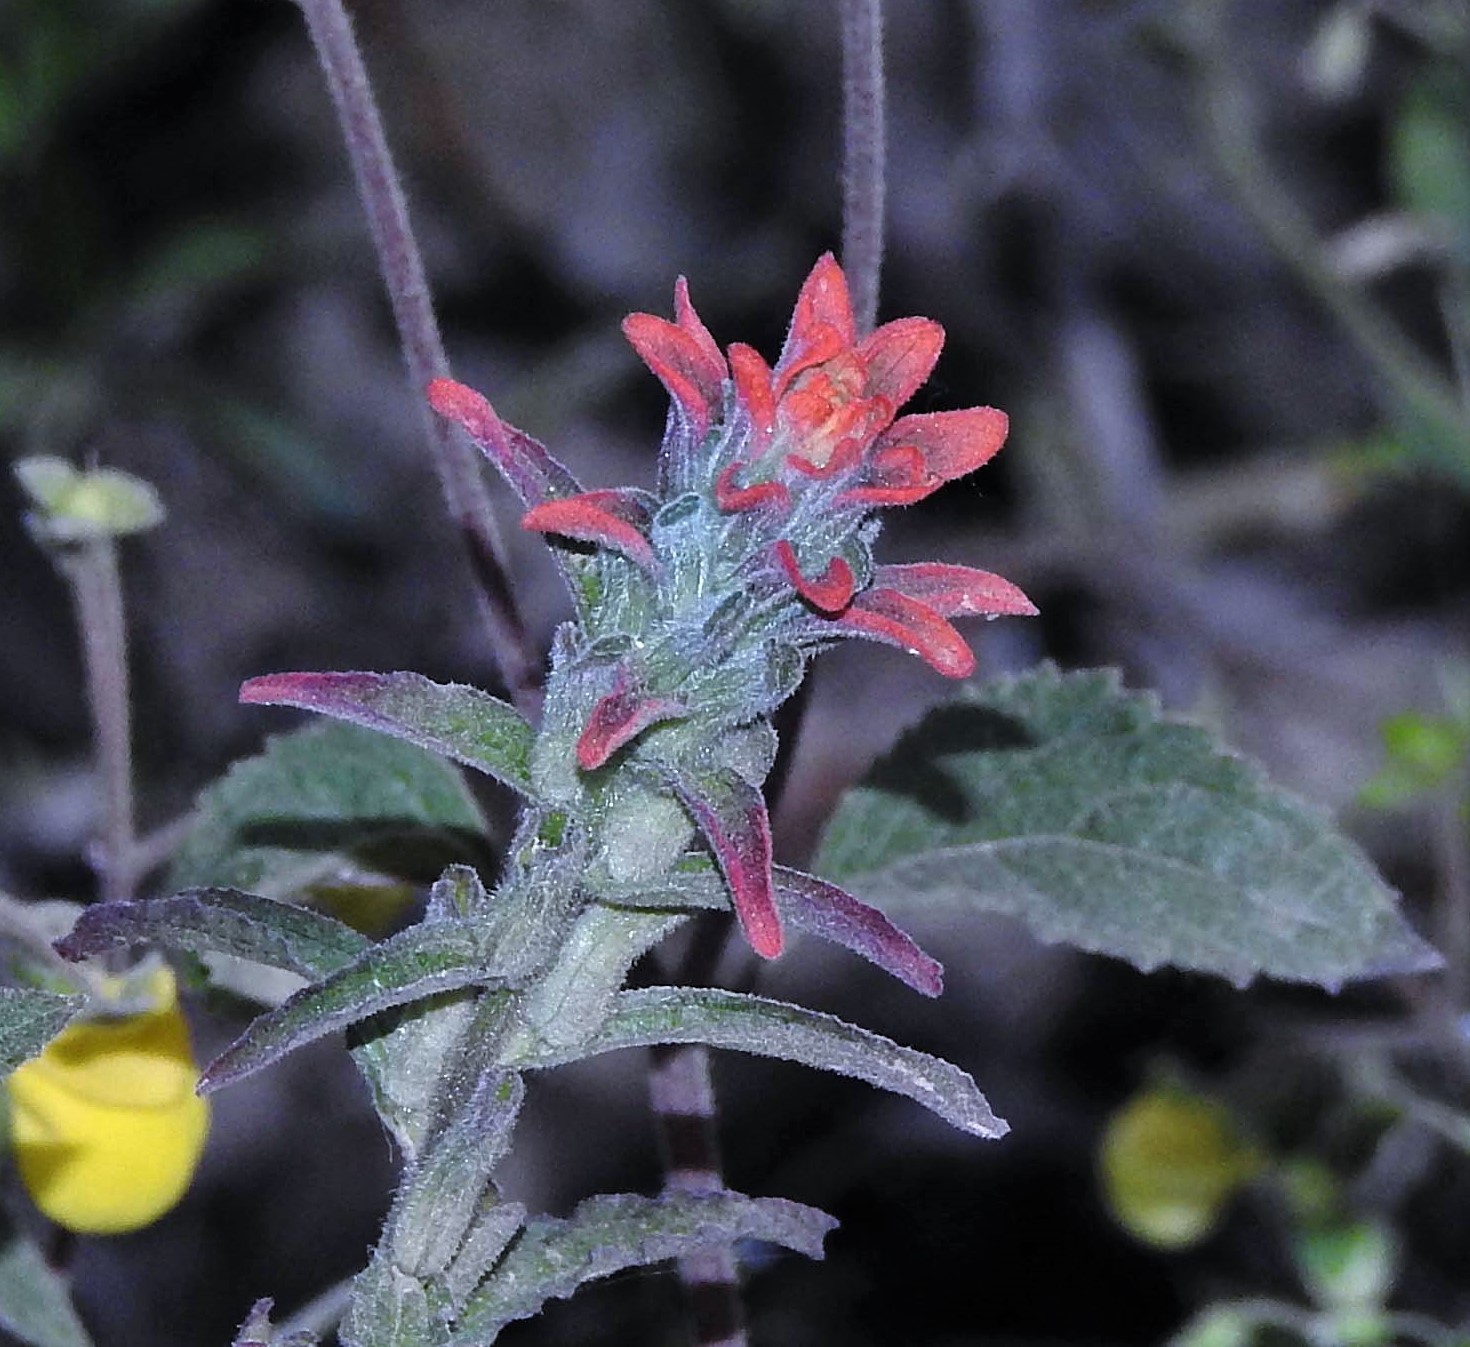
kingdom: Plantae
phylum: Tracheophyta
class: Magnoliopsida
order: Lamiales
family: Orobanchaceae
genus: Castilleja
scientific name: Castilleja arvensis
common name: Indian paintbrush
